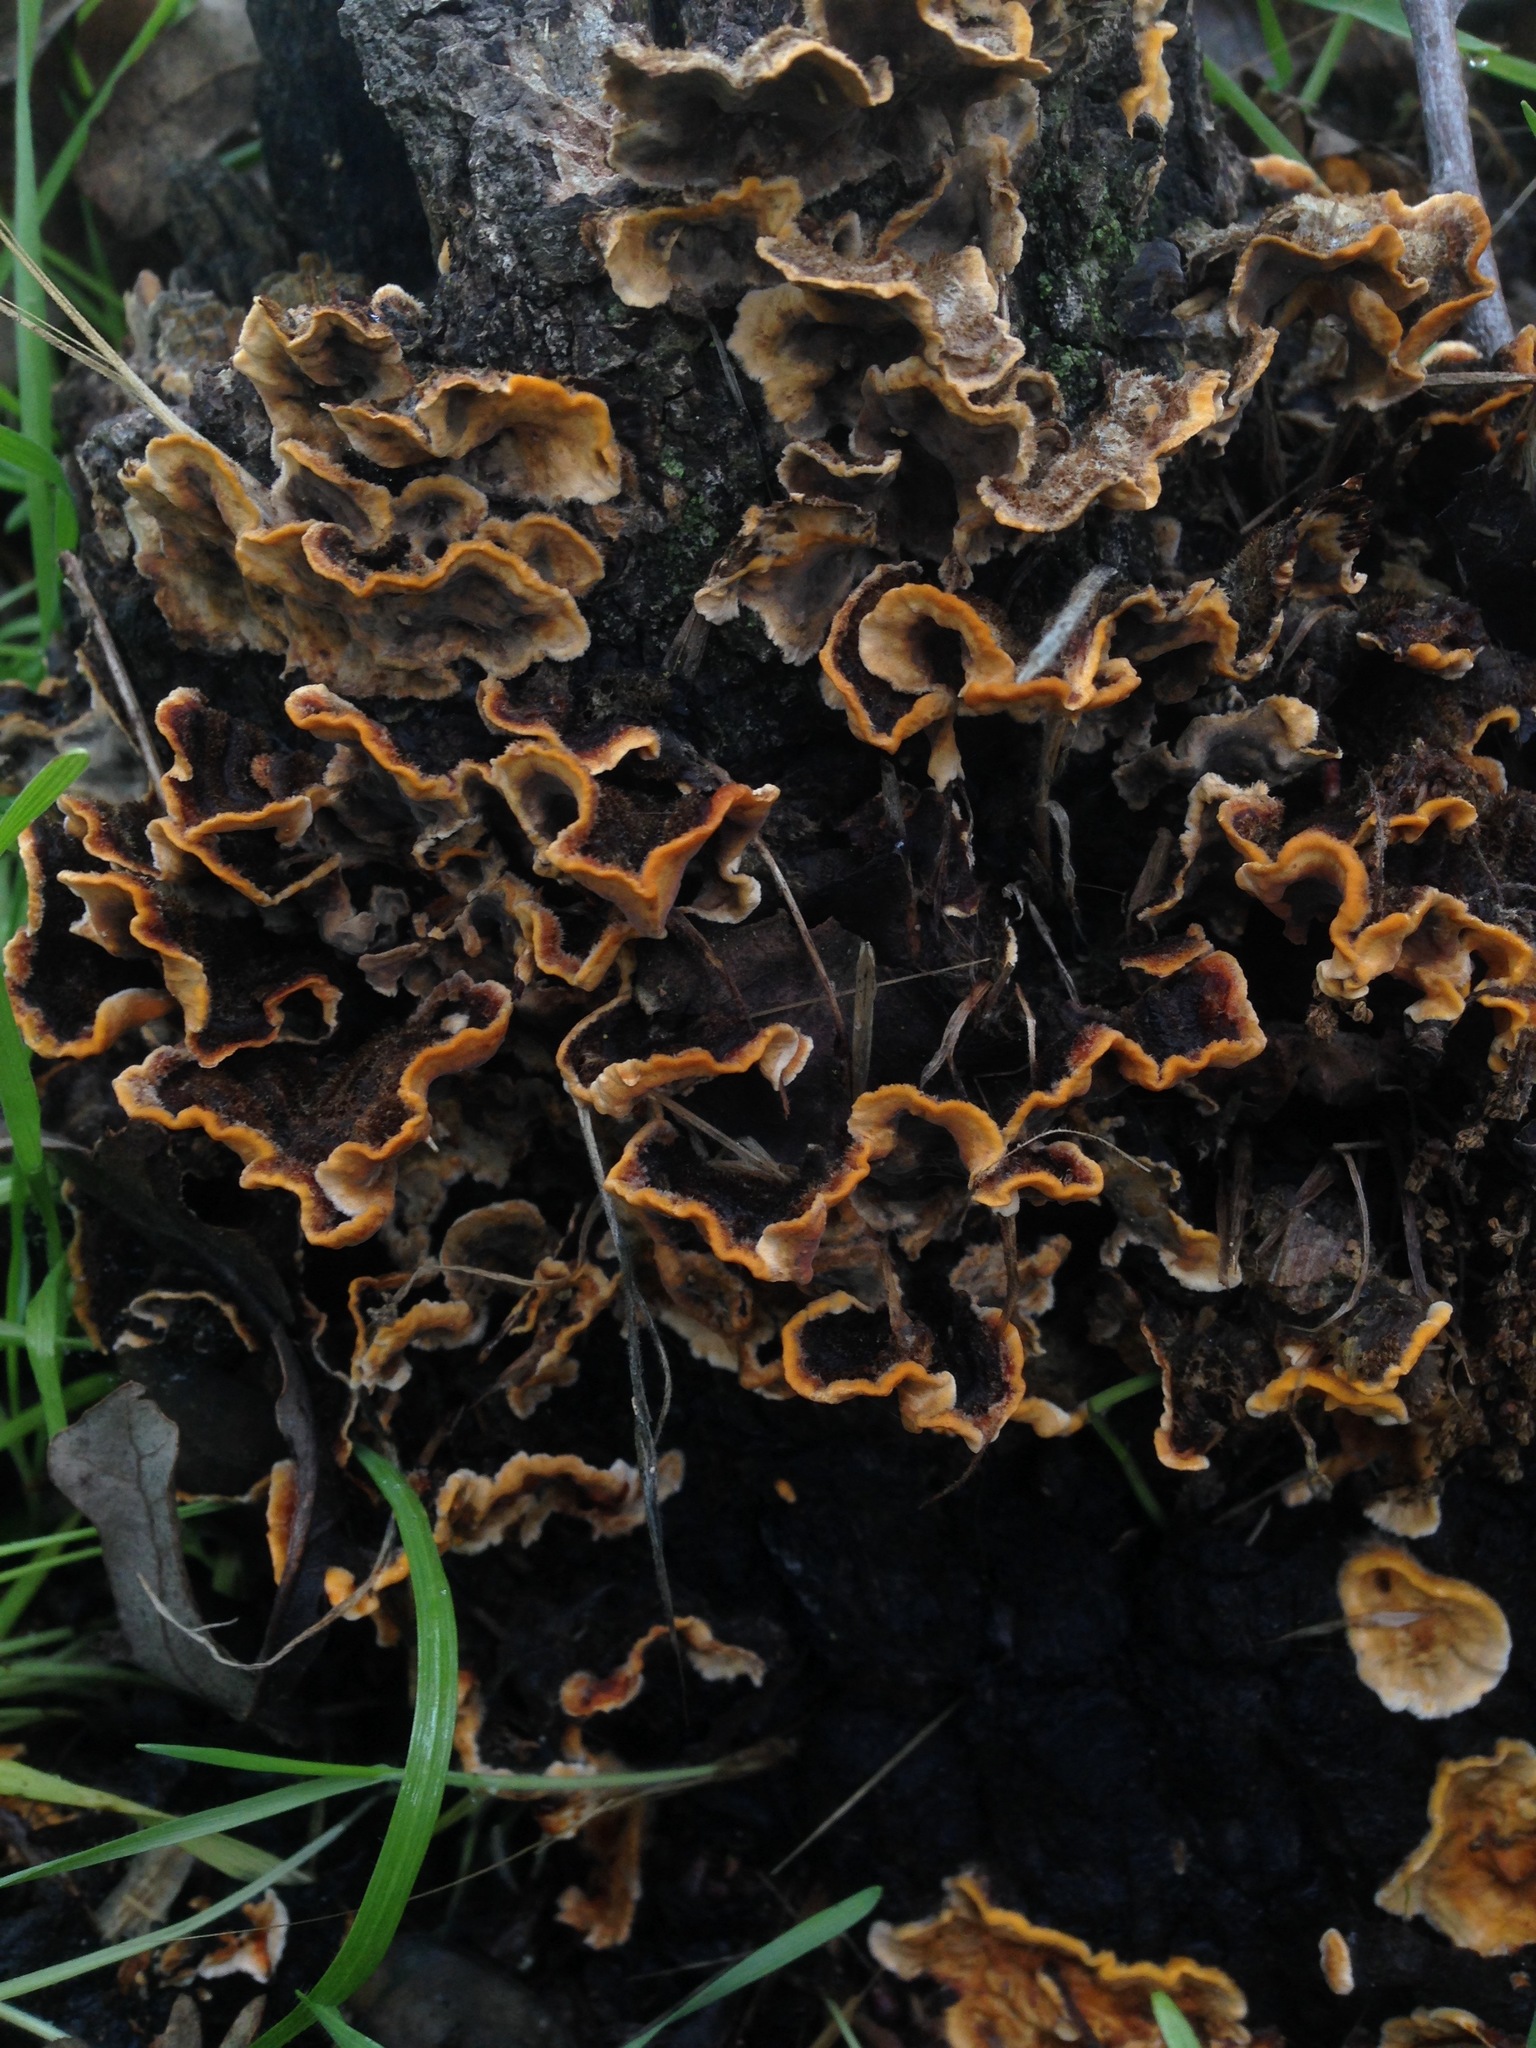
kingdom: Fungi
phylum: Basidiomycota
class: Agaricomycetes
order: Russulales
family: Stereaceae
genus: Stereum
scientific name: Stereum hirsutum
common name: Hairy curtain crust
